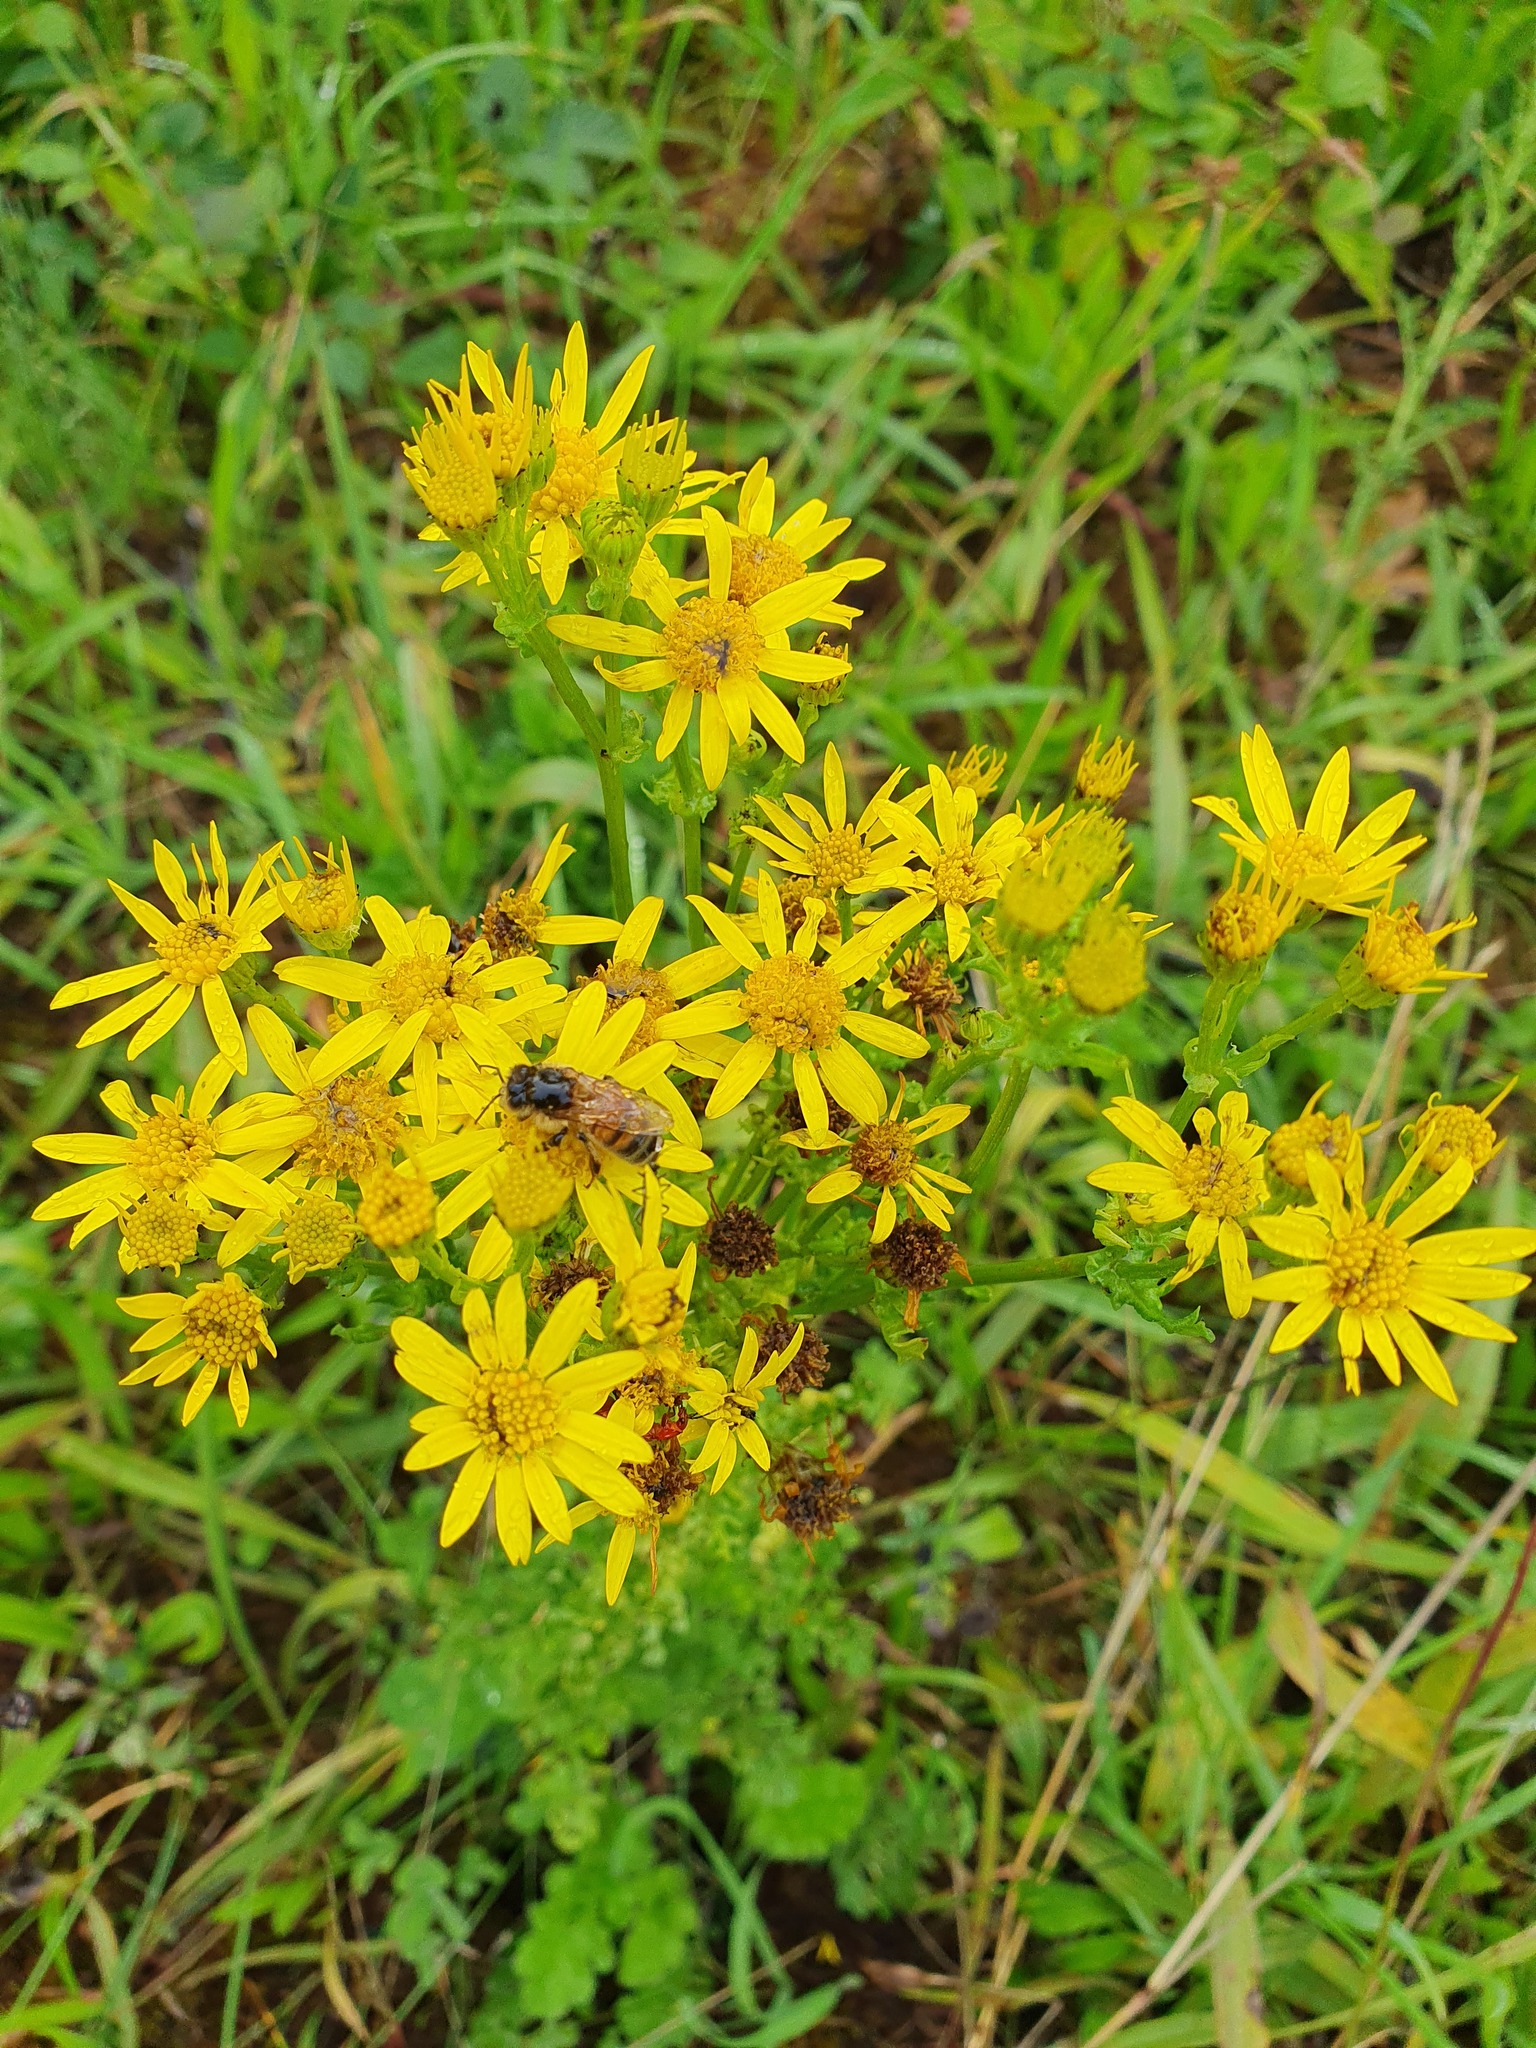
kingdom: Plantae
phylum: Tracheophyta
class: Magnoliopsida
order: Asterales
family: Asteraceae
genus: Jacobaea
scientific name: Jacobaea vulgaris
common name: Stinking willie
